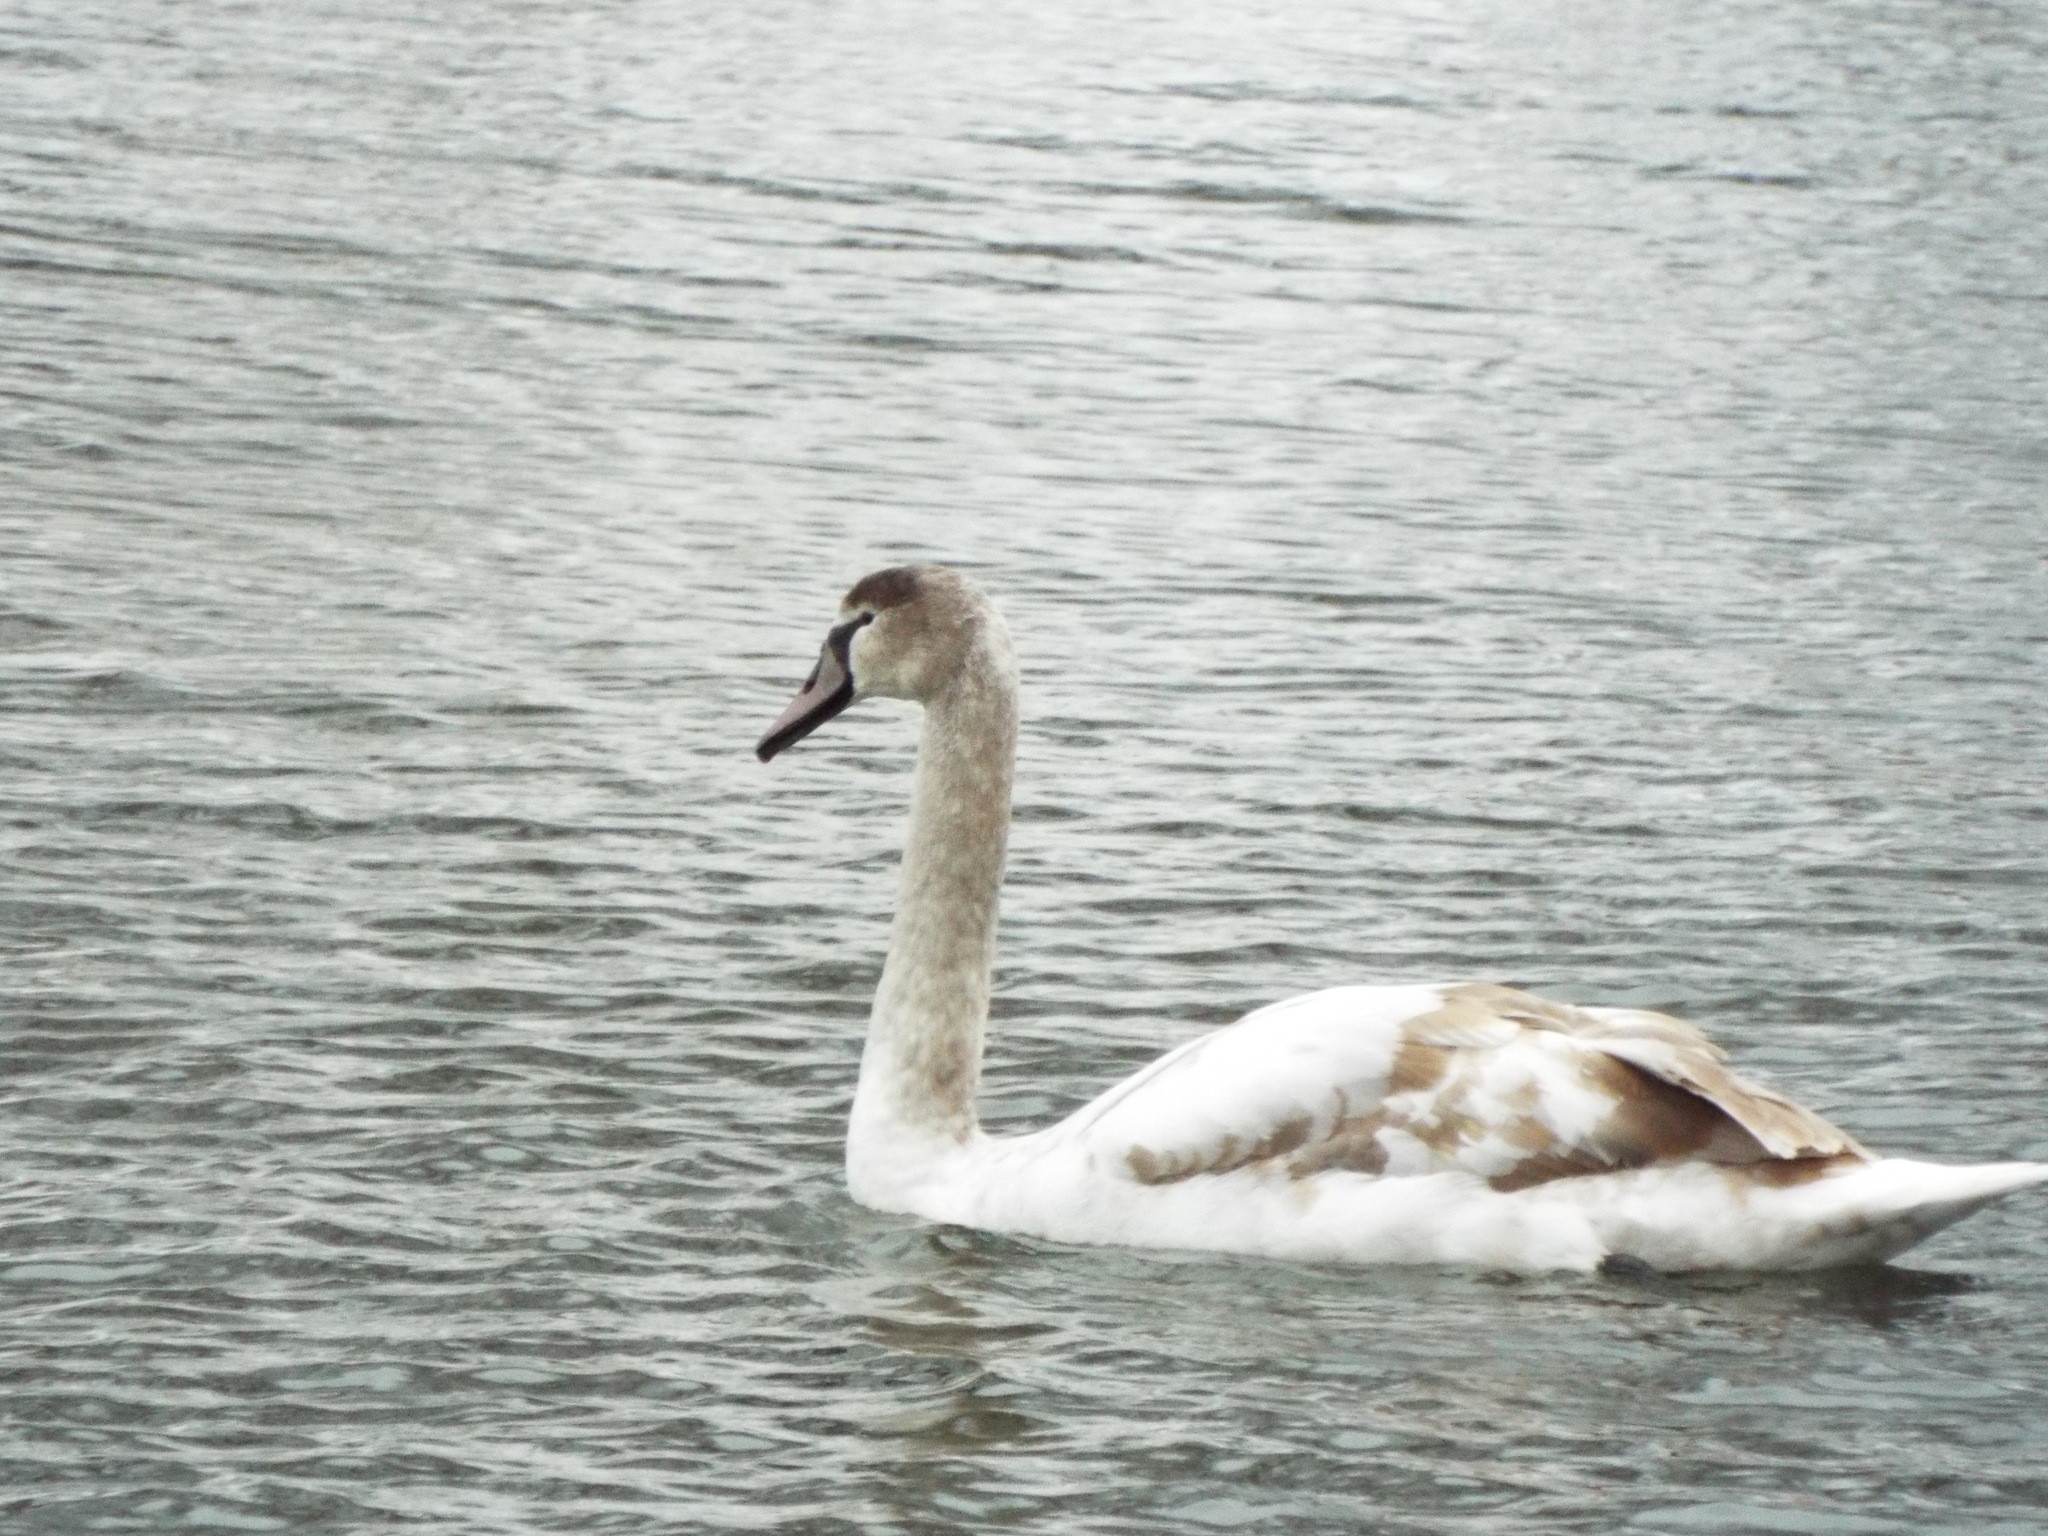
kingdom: Animalia
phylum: Chordata
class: Aves
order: Anseriformes
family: Anatidae
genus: Cygnus
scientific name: Cygnus olor
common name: Mute swan
